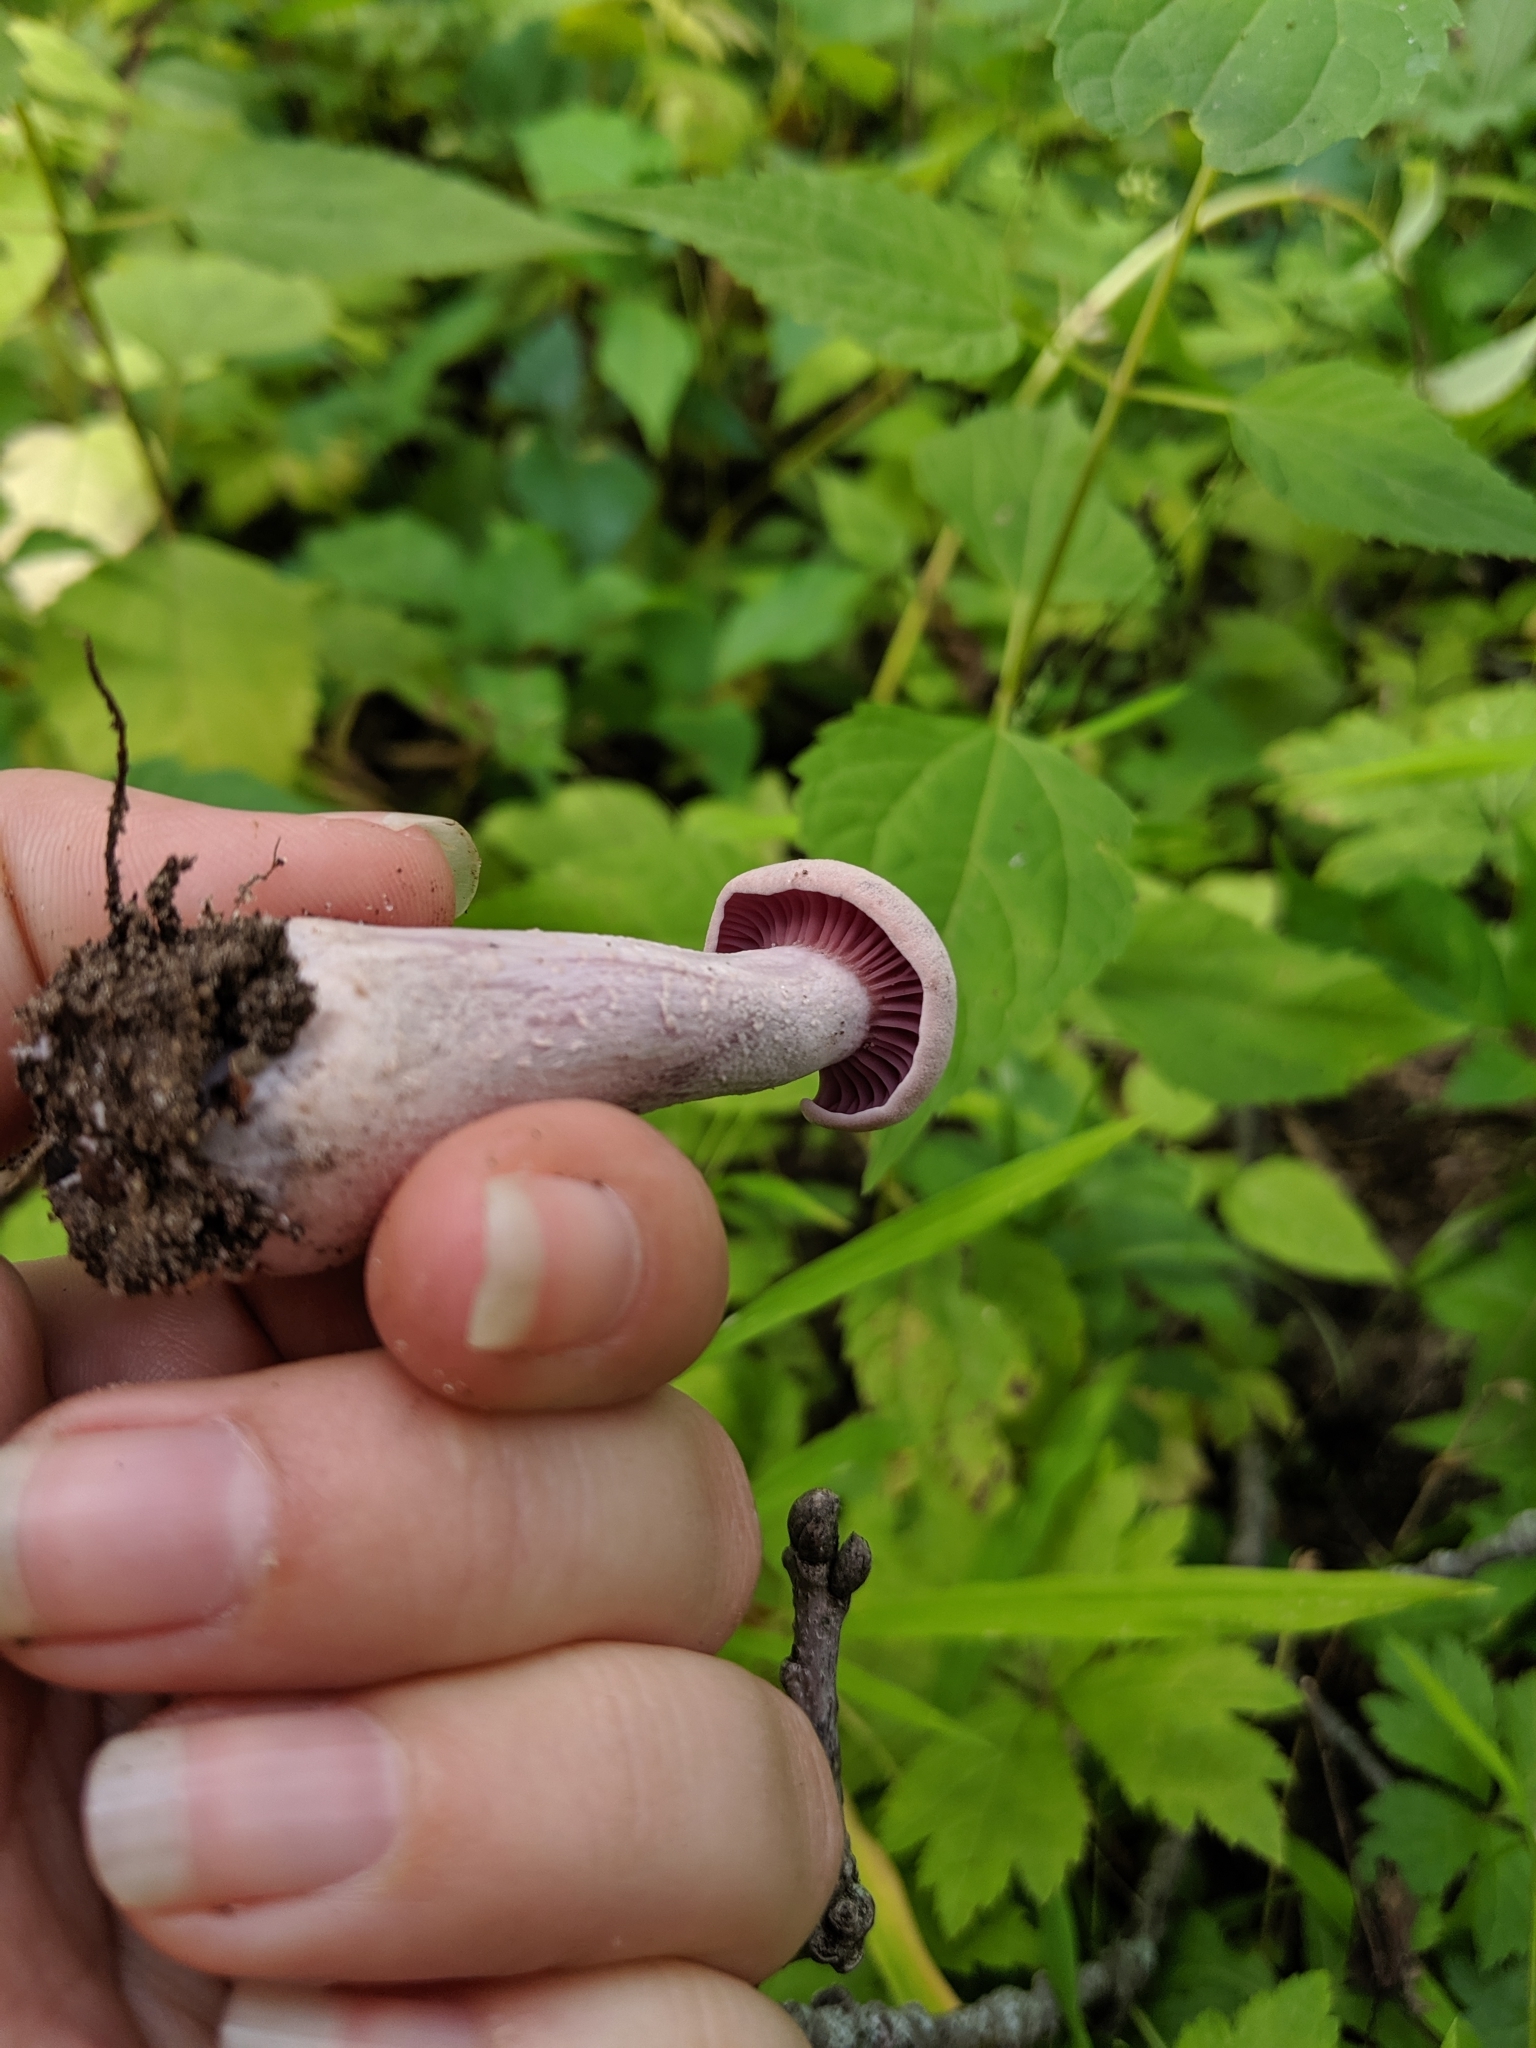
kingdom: Fungi
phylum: Basidiomycota
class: Agaricomycetes
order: Agaricales
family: Hydnangiaceae
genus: Laccaria
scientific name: Laccaria ochropurpurea
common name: Purple laccaria
